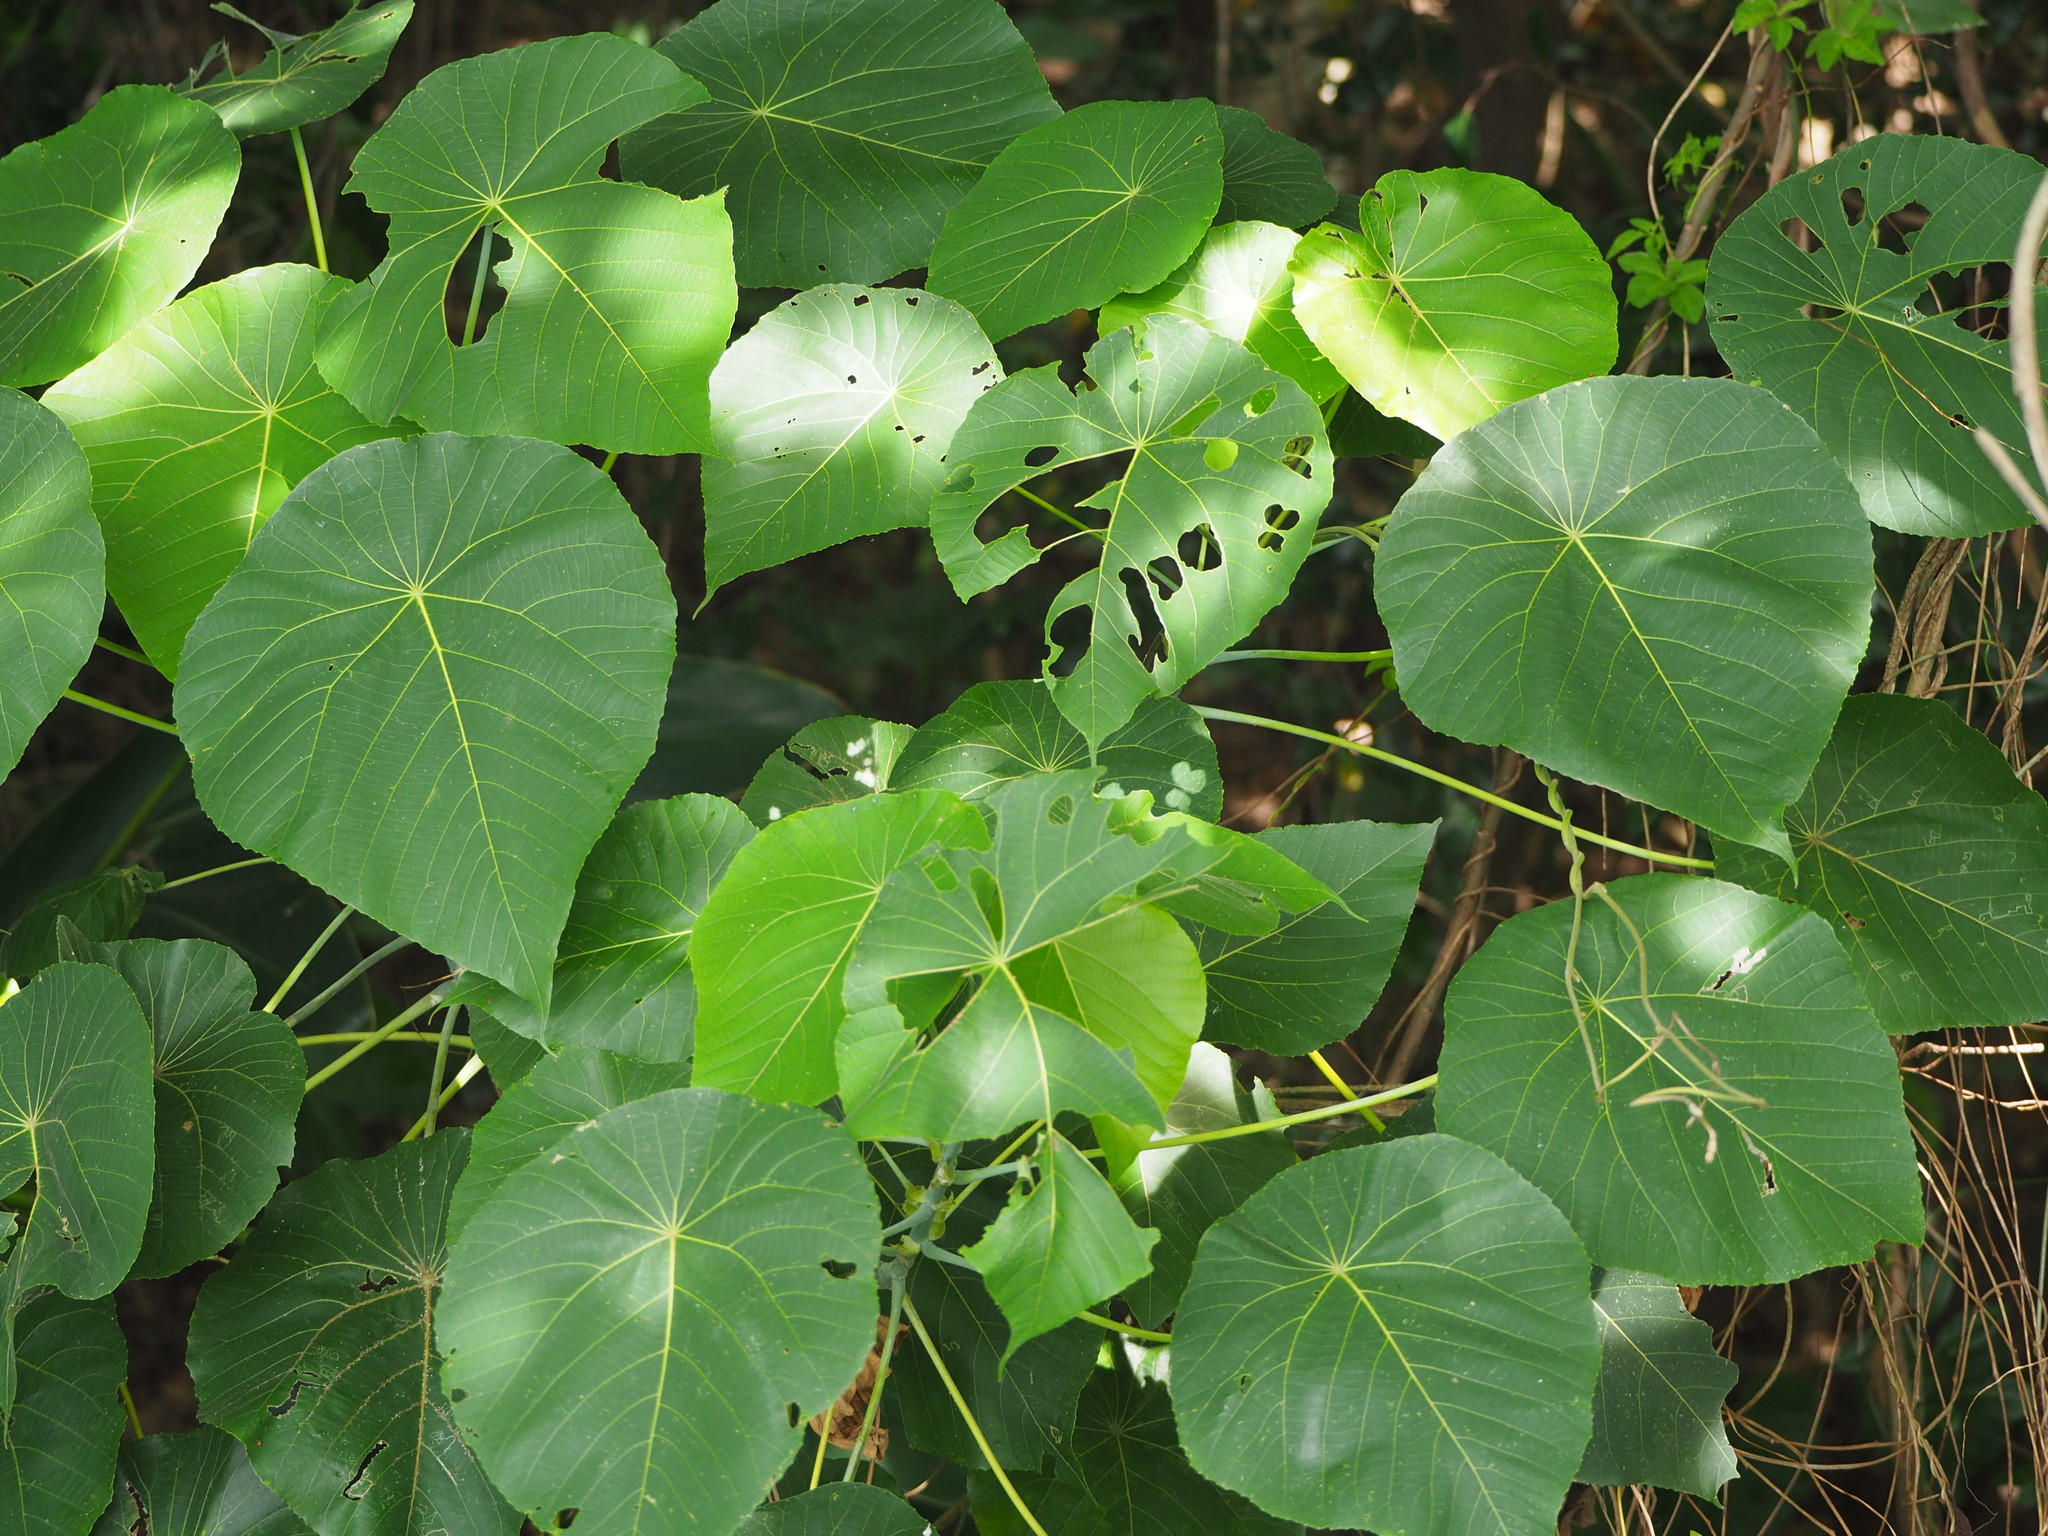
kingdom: Plantae
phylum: Tracheophyta
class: Magnoliopsida
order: Malpighiales
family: Euphorbiaceae
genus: Macaranga
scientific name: Macaranga tanarius
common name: Parasol leaf tree
